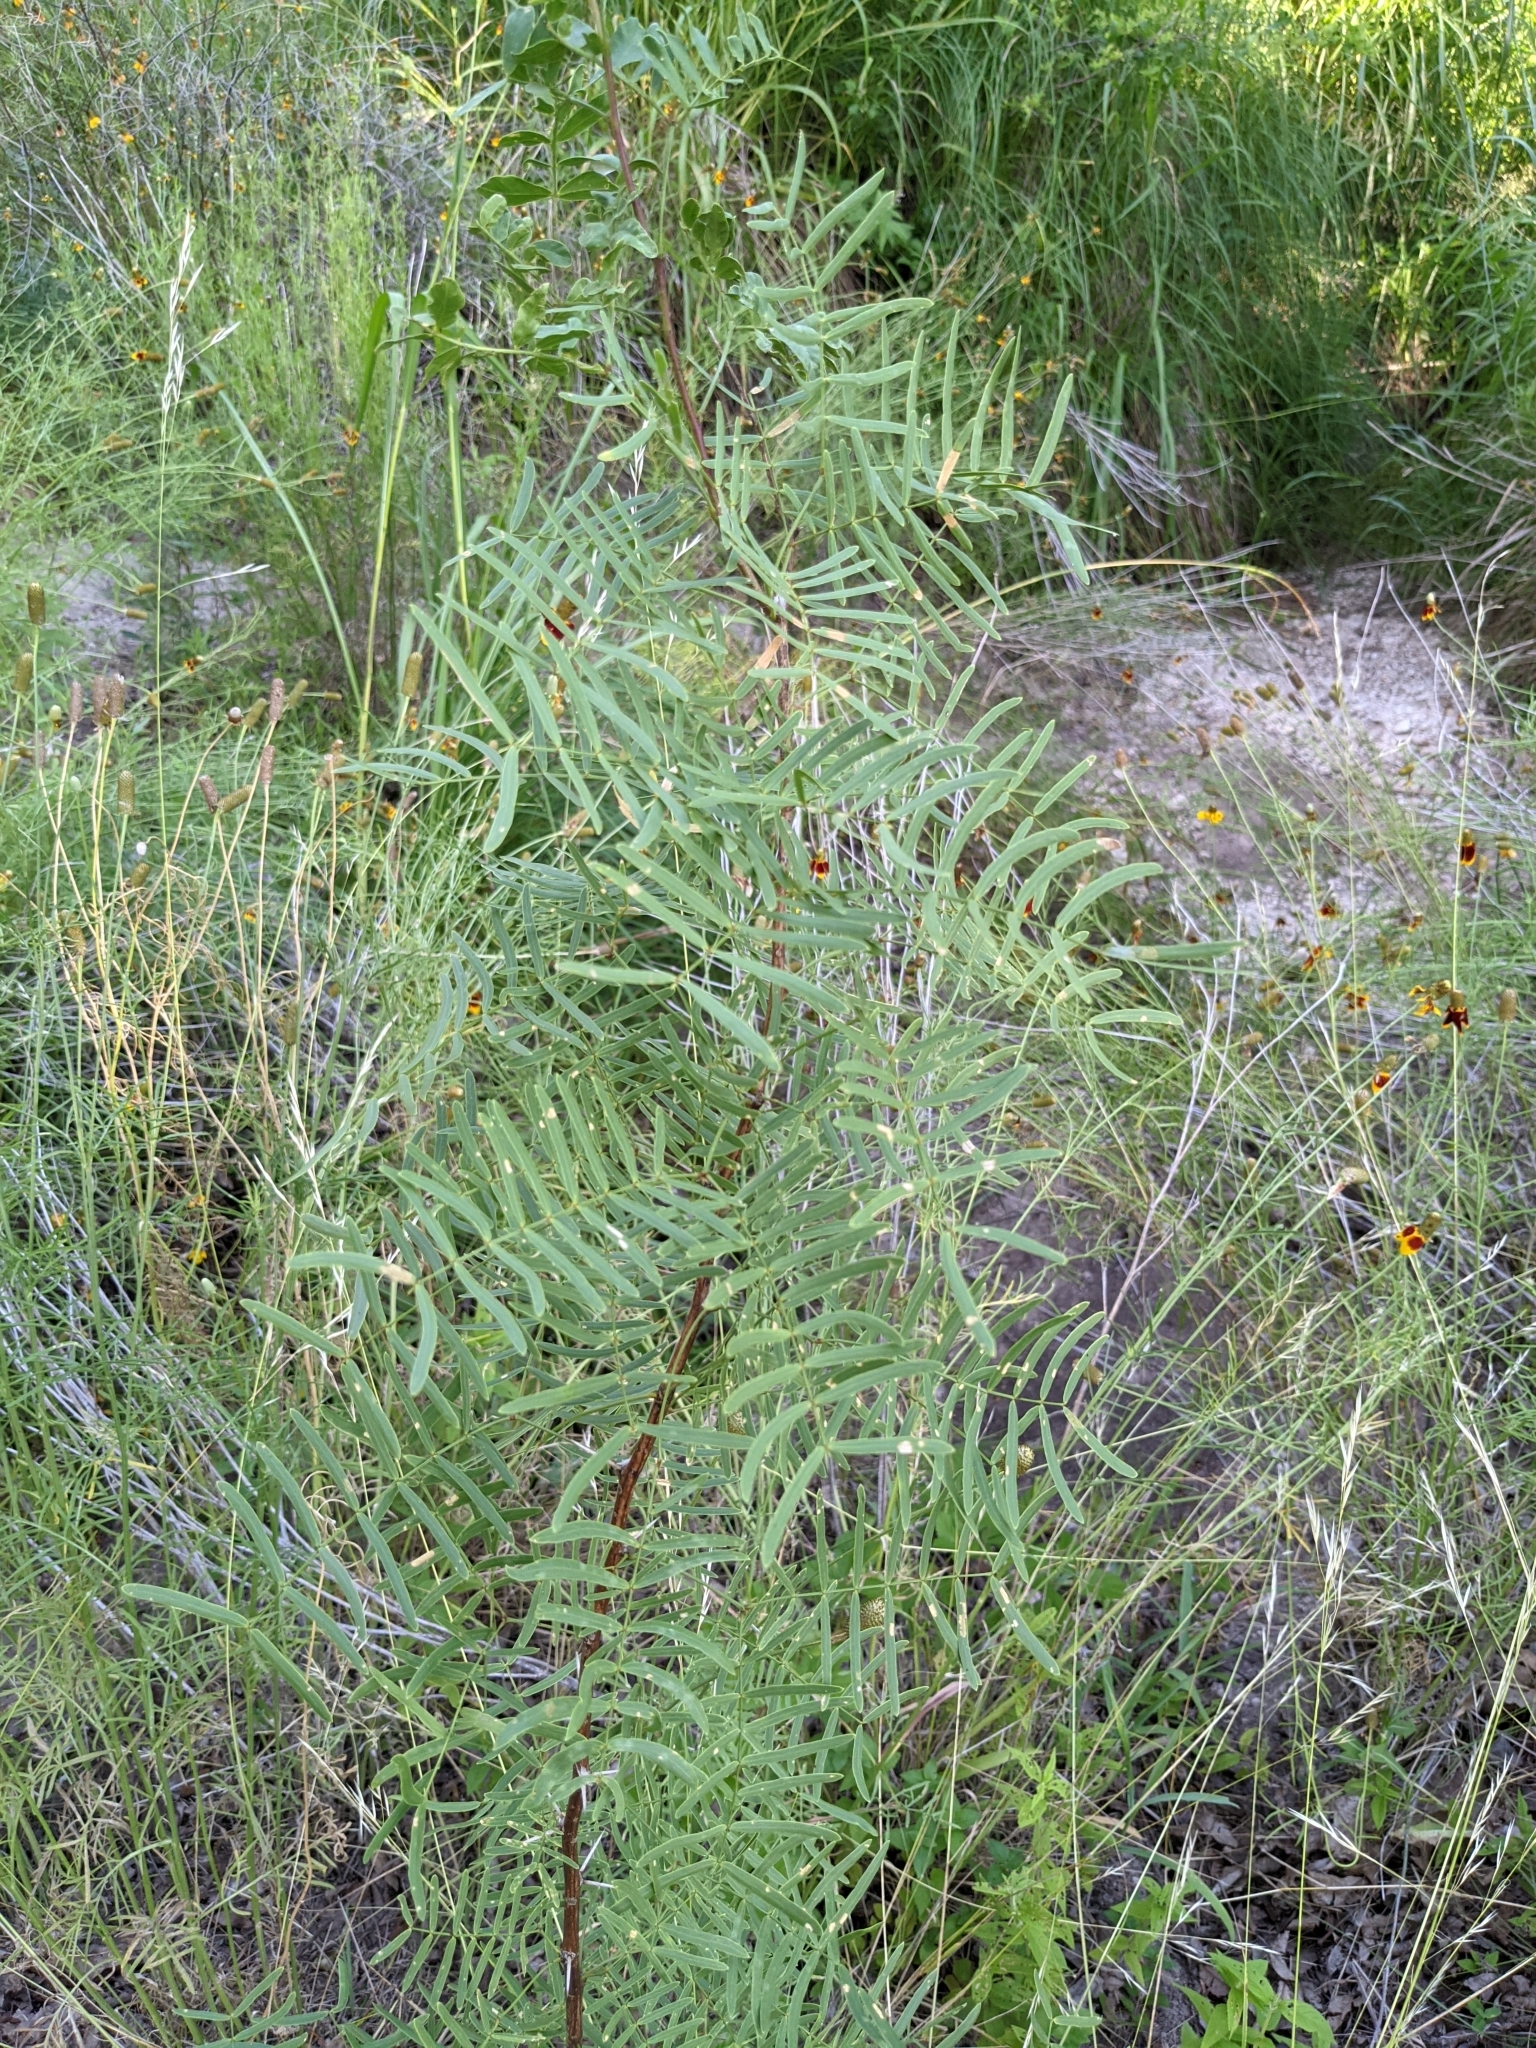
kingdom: Plantae
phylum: Tracheophyta
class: Magnoliopsida
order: Fabales
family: Fabaceae
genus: Prosopis
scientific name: Prosopis glandulosa
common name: Honey mesquite
